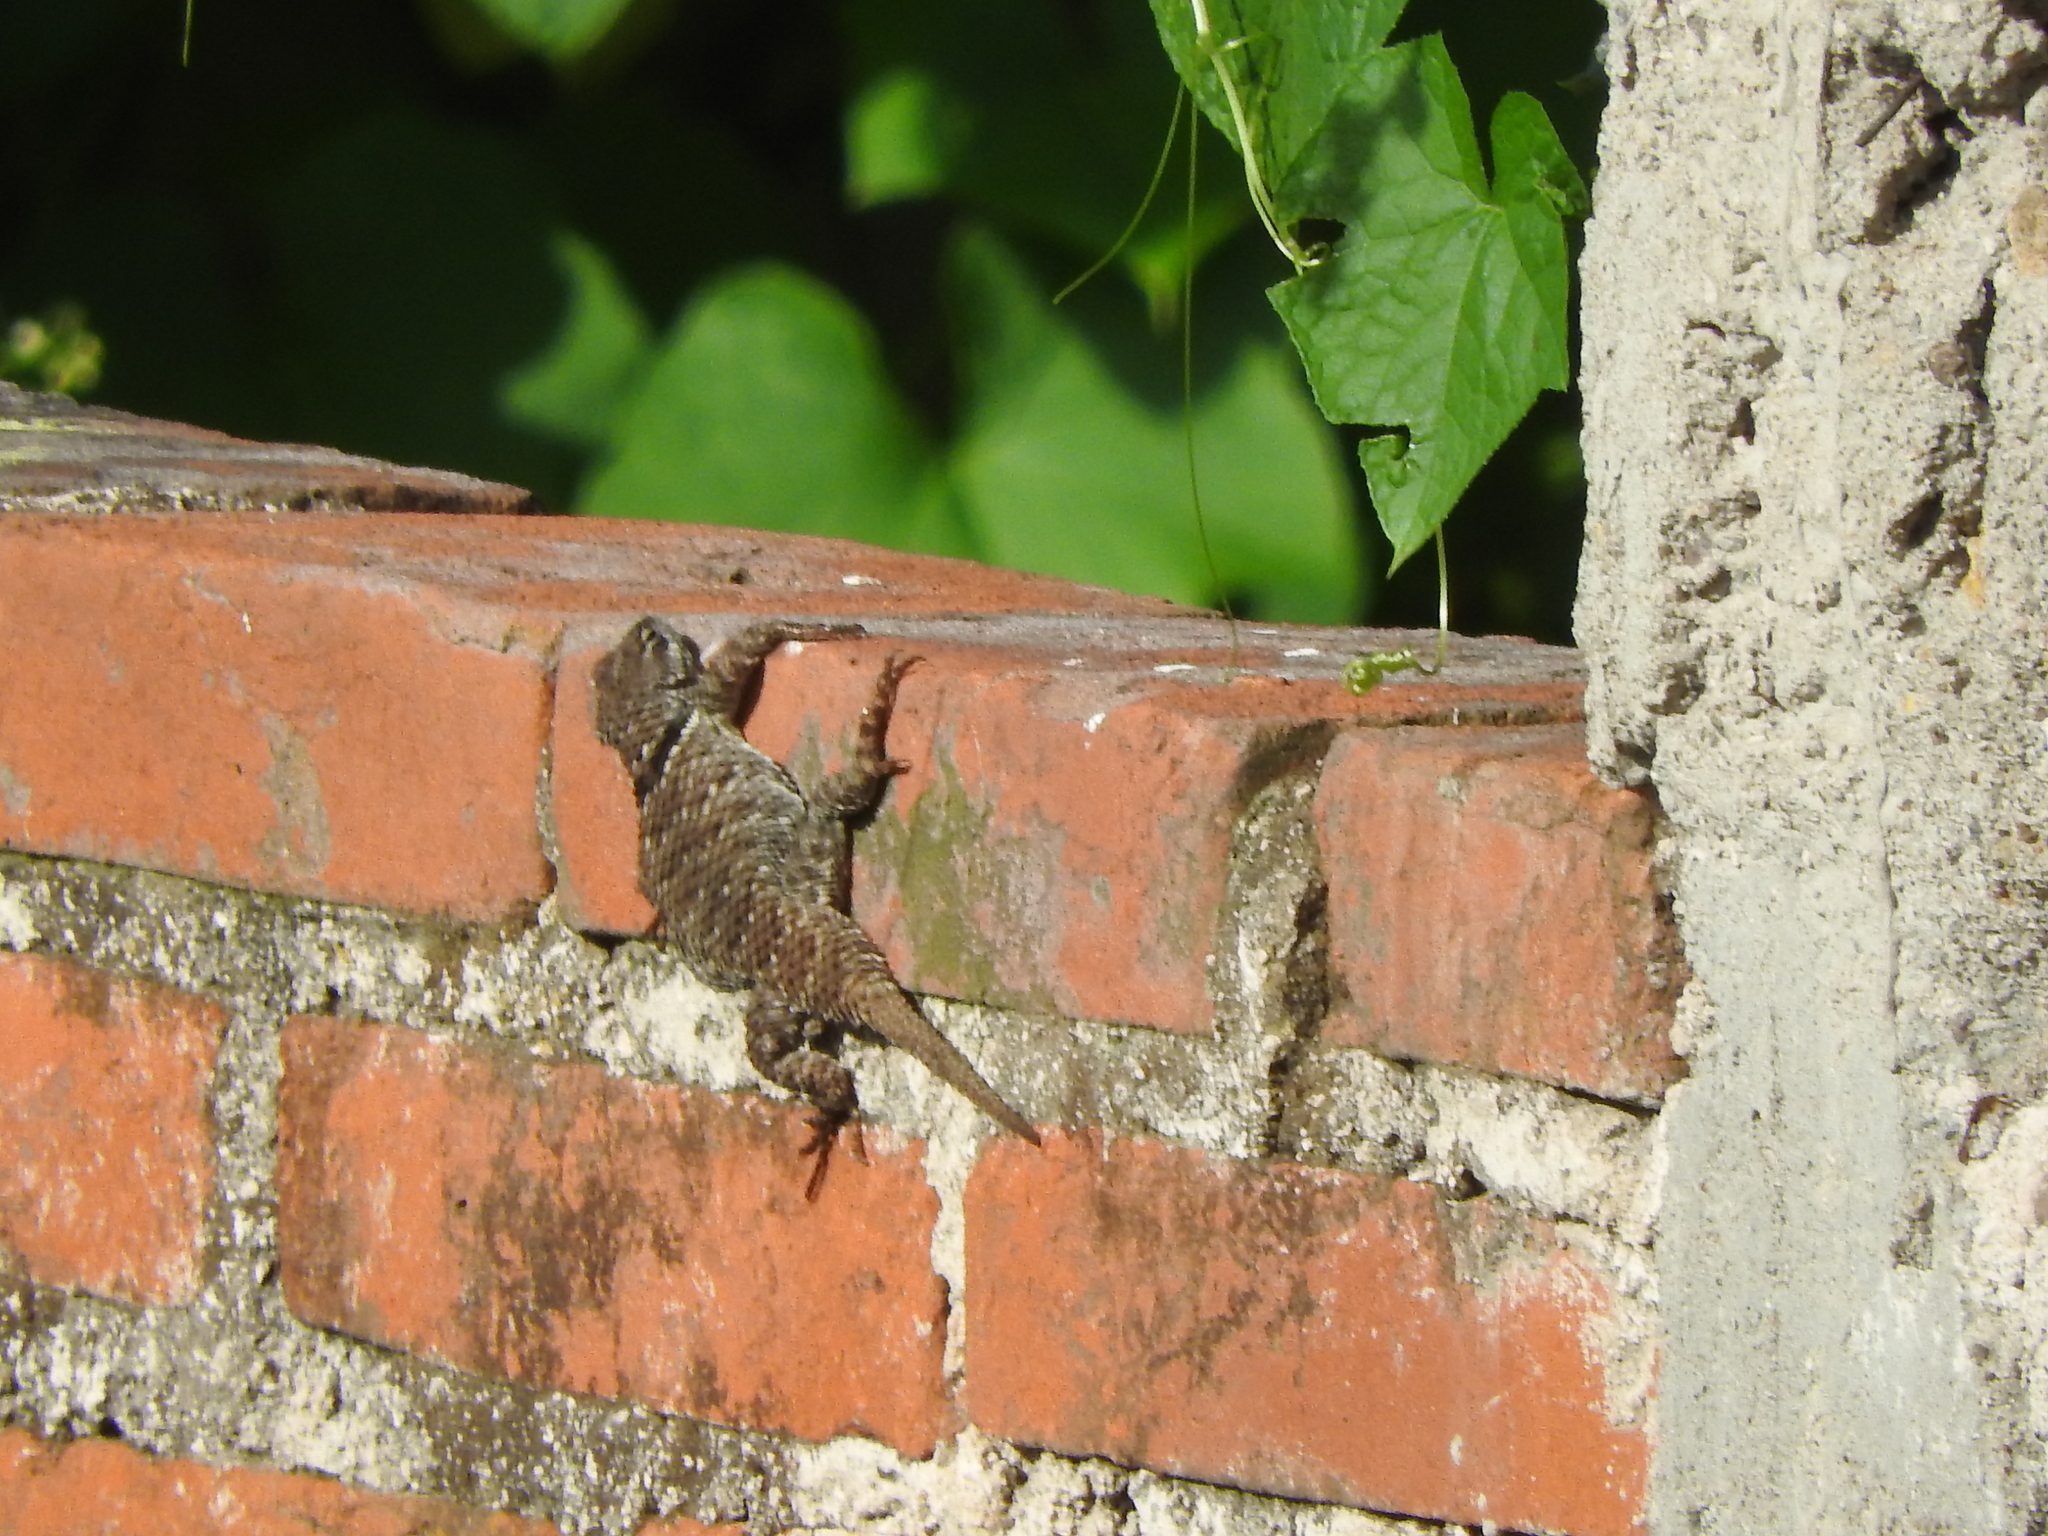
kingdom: Animalia
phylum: Chordata
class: Squamata
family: Phrynosomatidae
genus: Sceloporus
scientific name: Sceloporus torquatus
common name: Central plateau torquate lizard [melanogaster]
